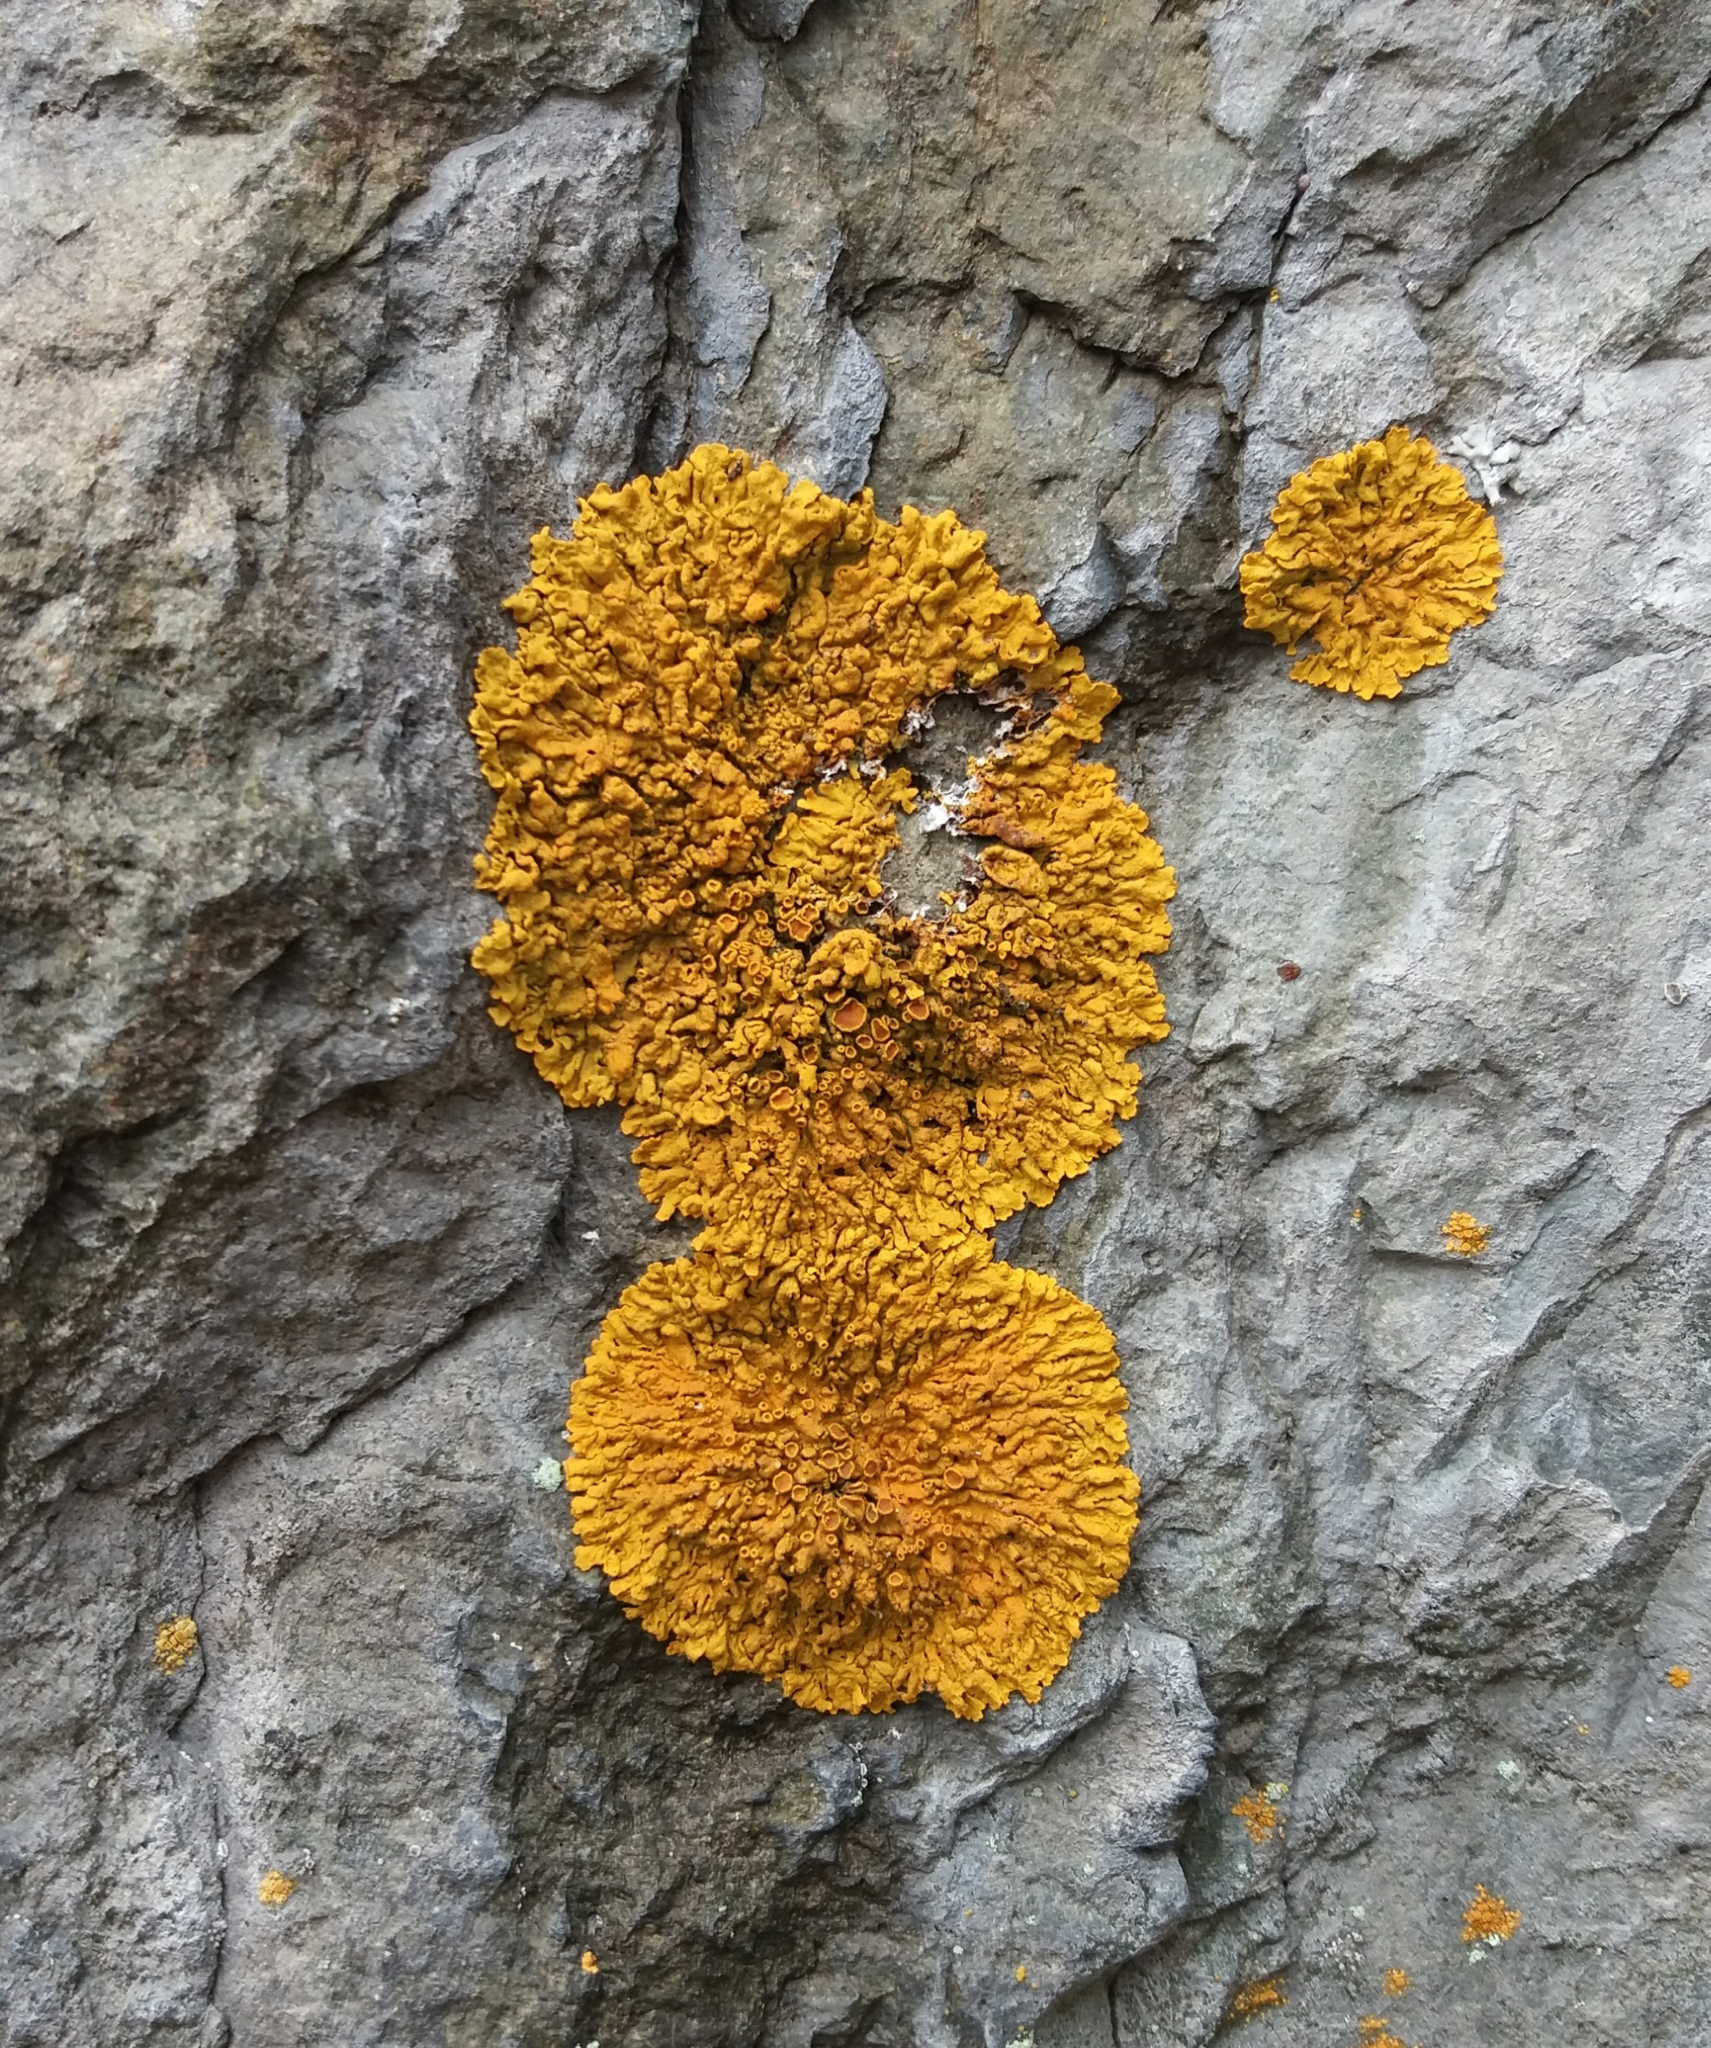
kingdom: Fungi
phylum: Ascomycota
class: Lecanoromycetes
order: Teloschistales
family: Teloschistaceae
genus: Xanthoria
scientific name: Xanthoria parietina
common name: Common orange lichen
